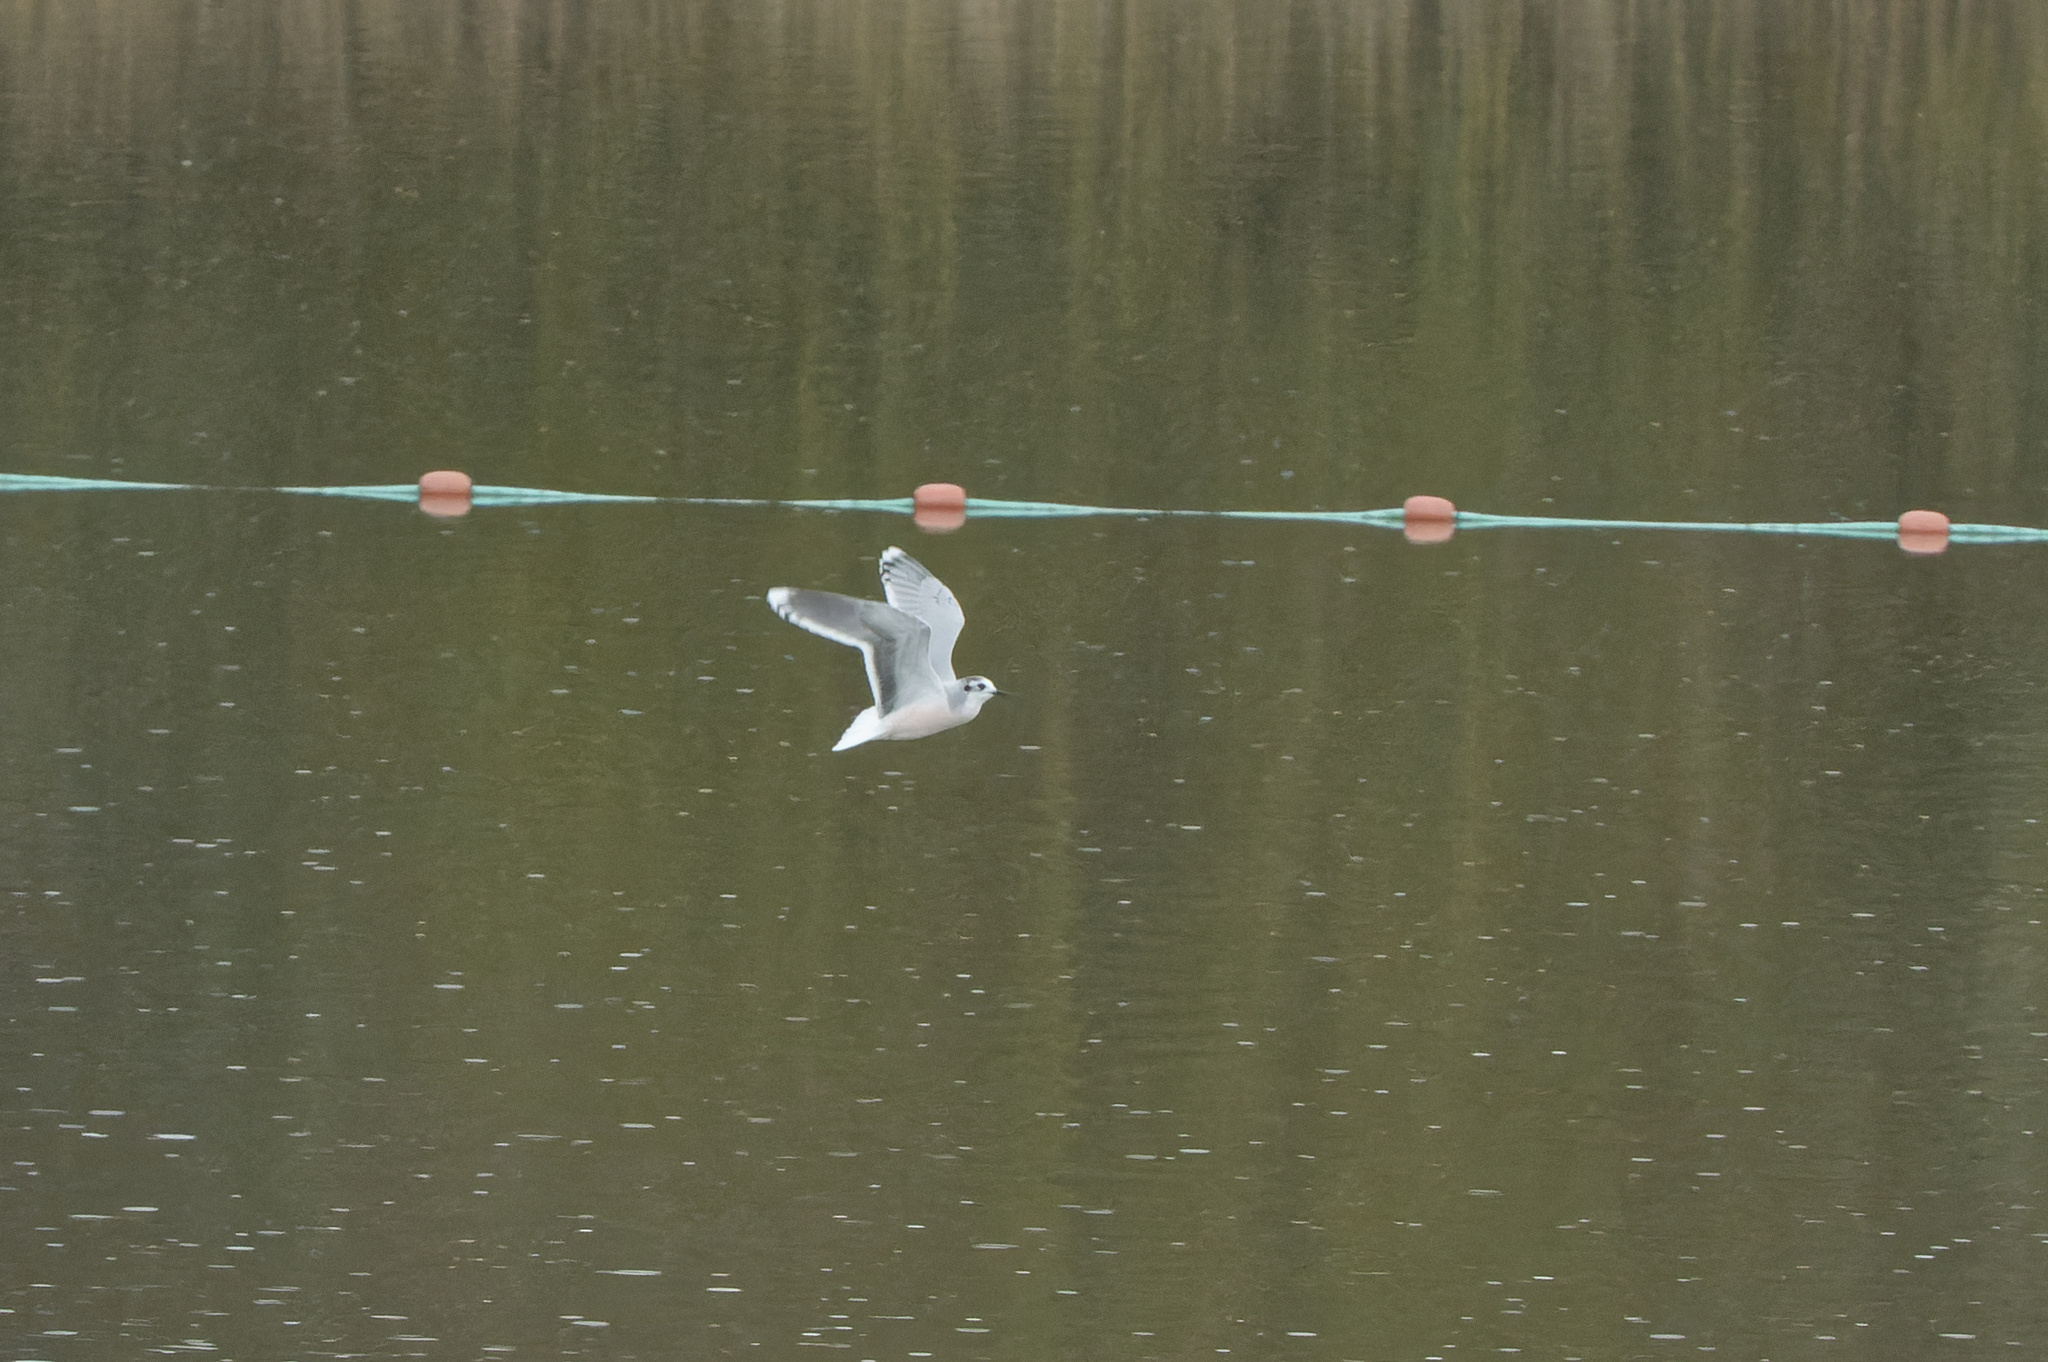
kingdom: Animalia
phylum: Chordata
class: Aves
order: Charadriiformes
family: Laridae
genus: Hydrocoloeus
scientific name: Hydrocoloeus minutus
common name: Little gull
